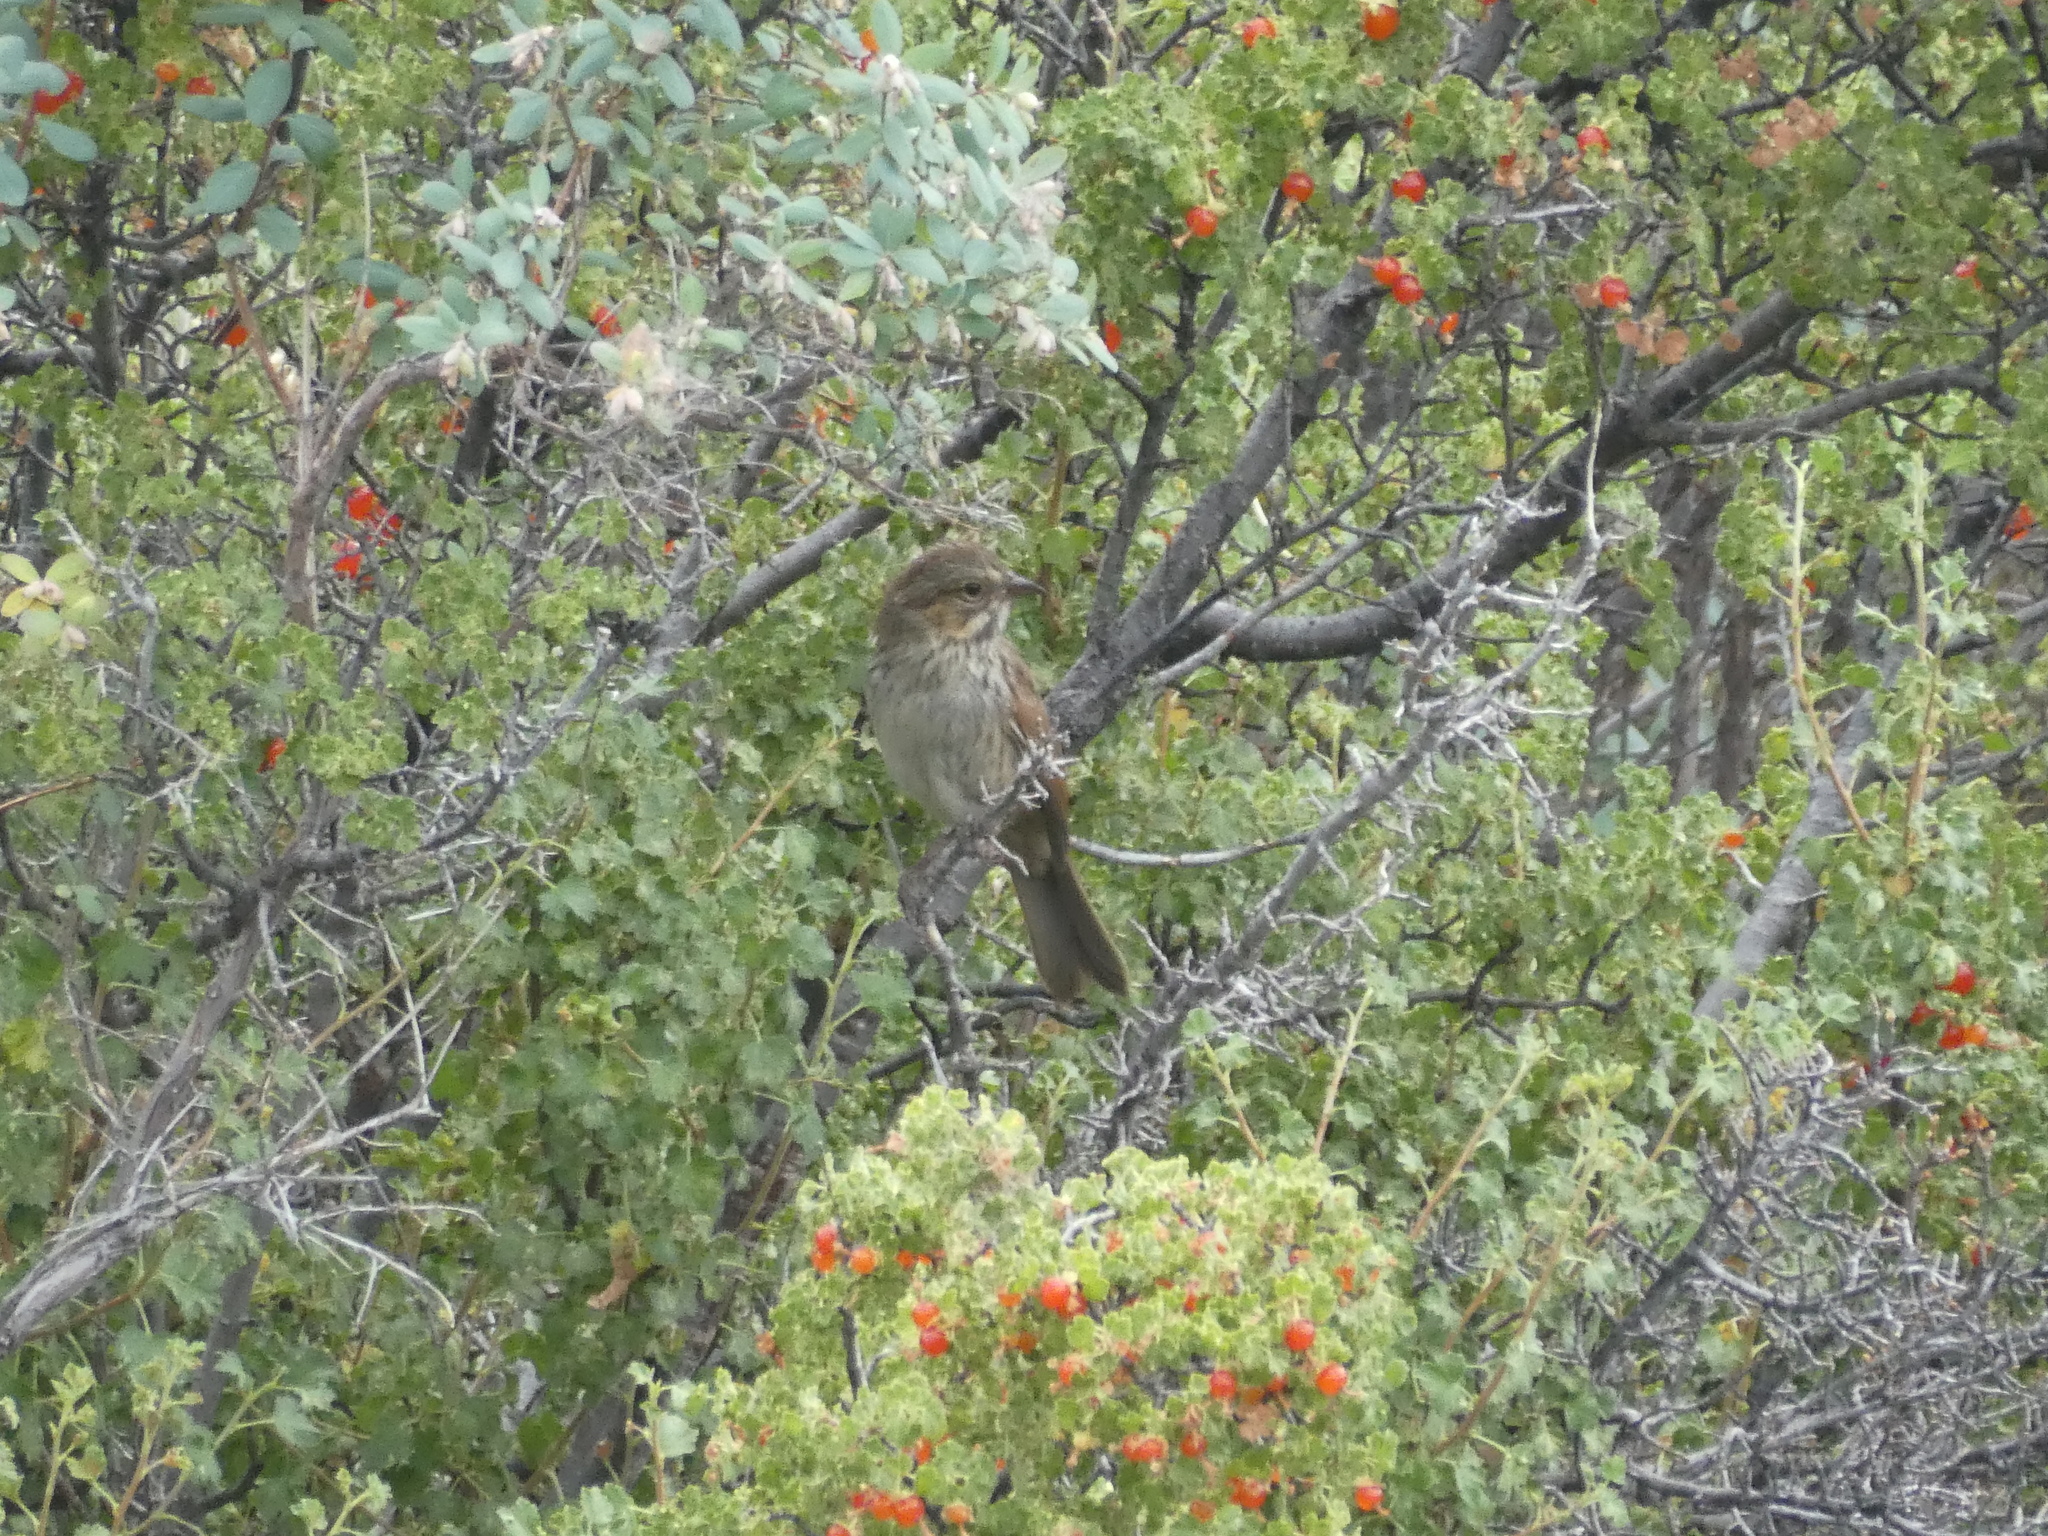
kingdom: Animalia
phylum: Chordata
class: Aves
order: Passeriformes
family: Passerellidae
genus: Melospiza
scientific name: Melospiza melodia
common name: Song sparrow
